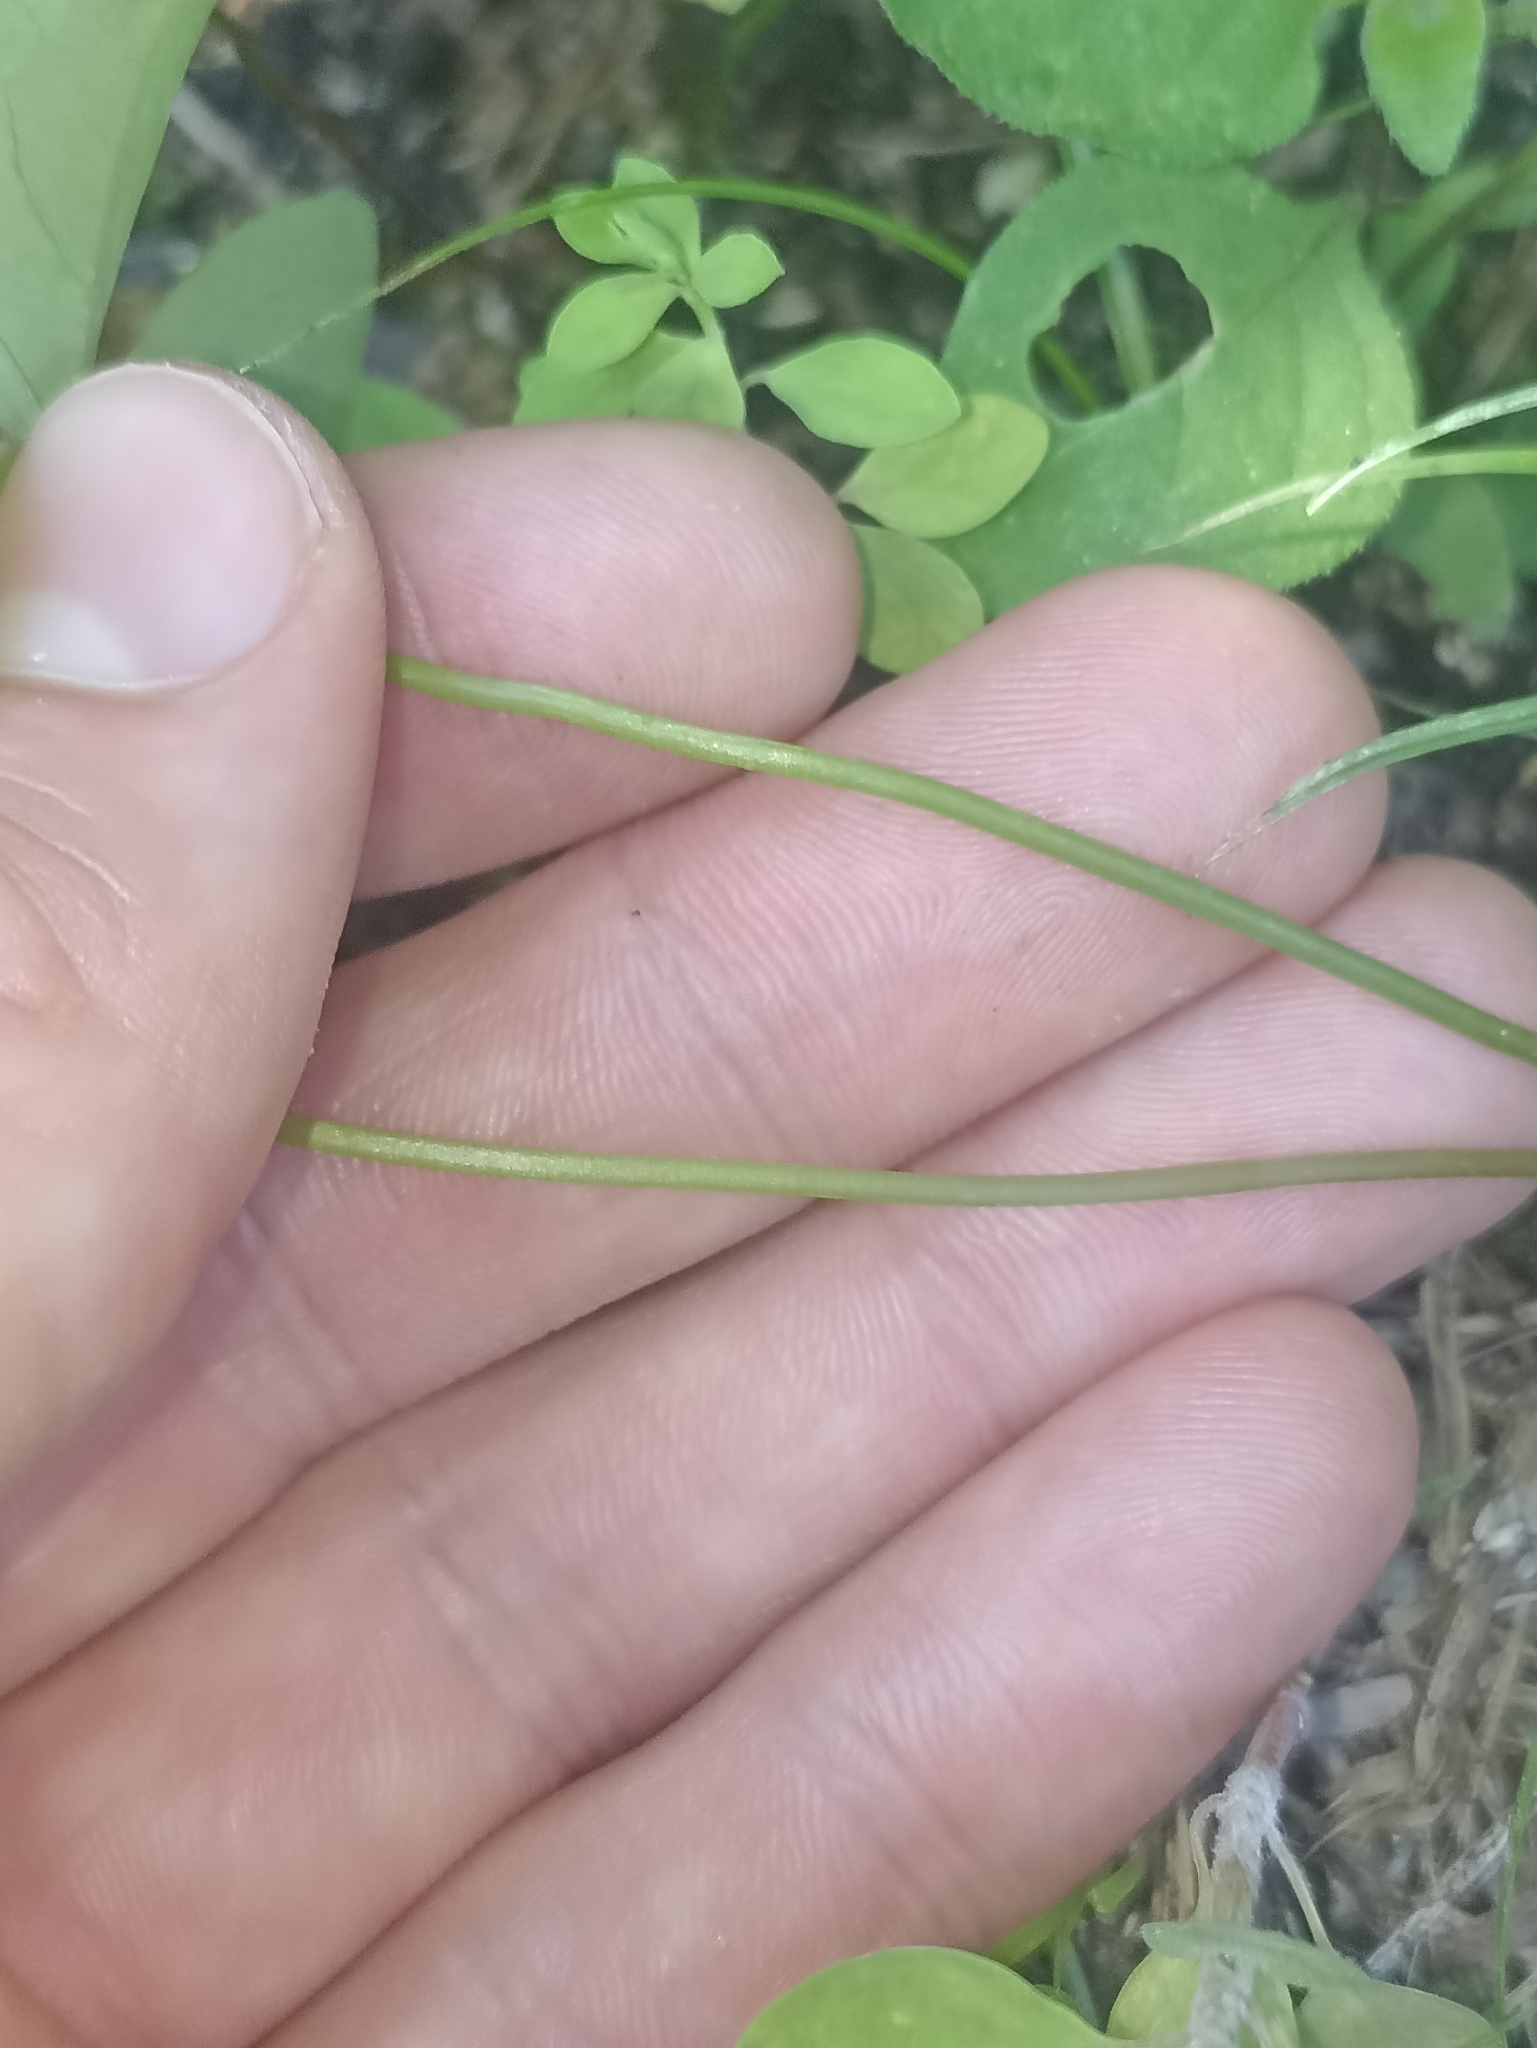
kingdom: Plantae
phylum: Tracheophyta
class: Magnoliopsida
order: Oxalidales
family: Oxalidaceae
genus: Oxalis
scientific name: Oxalis latifolia
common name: Garden pink-sorrel
